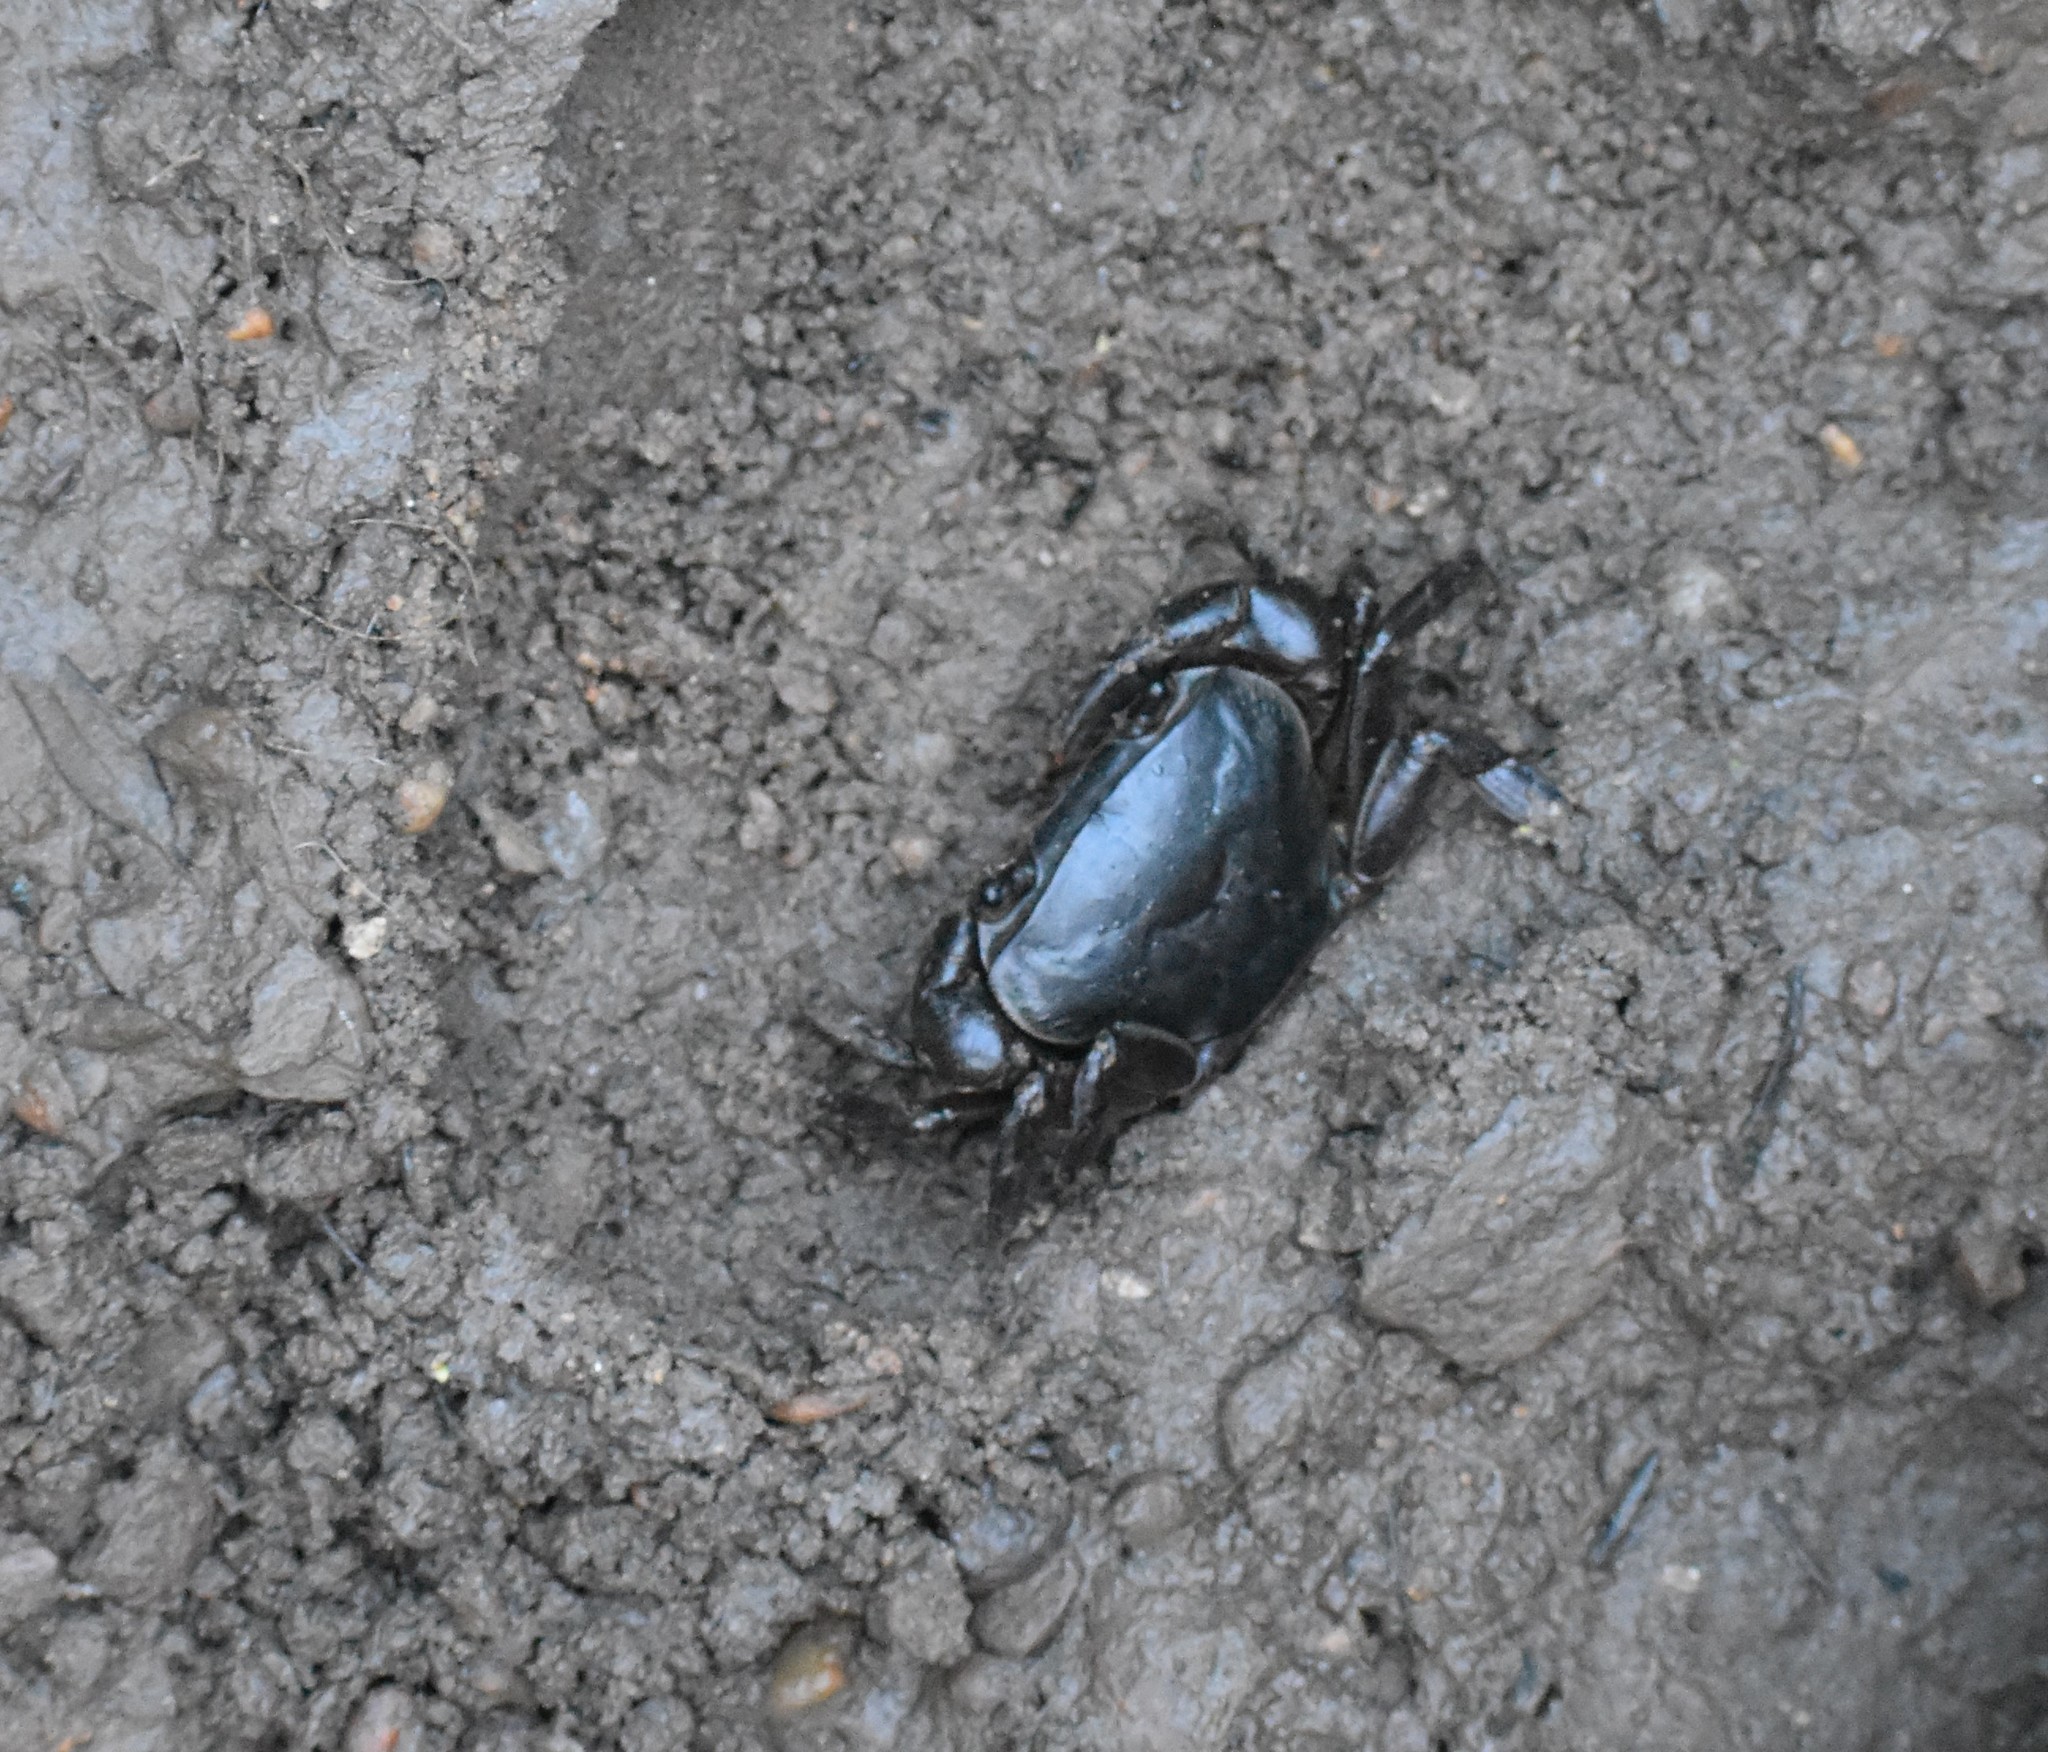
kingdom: Animalia
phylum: Arthropoda
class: Malacostraca
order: Decapoda
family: Potamonautidae
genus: Potamonautes
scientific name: Potamonautes barbarai
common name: Barbara's crab
